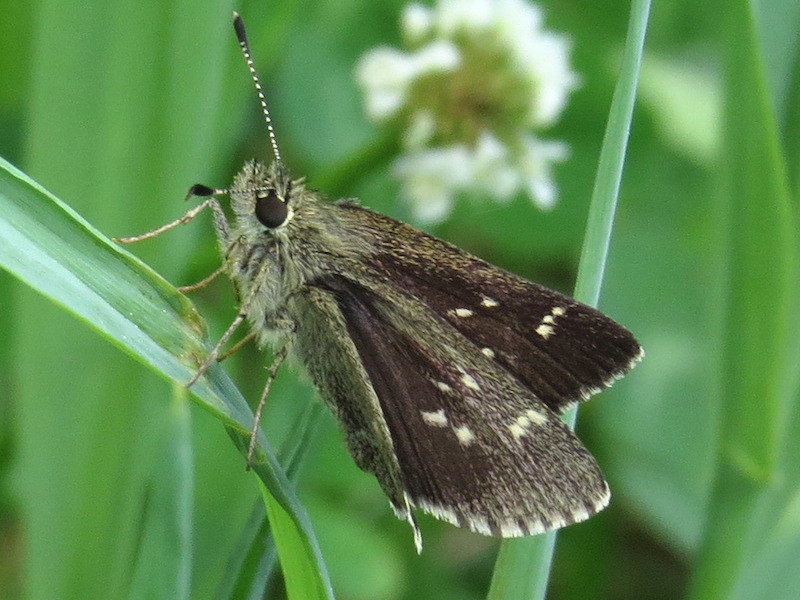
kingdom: Animalia
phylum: Arthropoda
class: Insecta
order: Lepidoptera
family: Hesperiidae
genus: Mastor
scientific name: Mastor hegon
